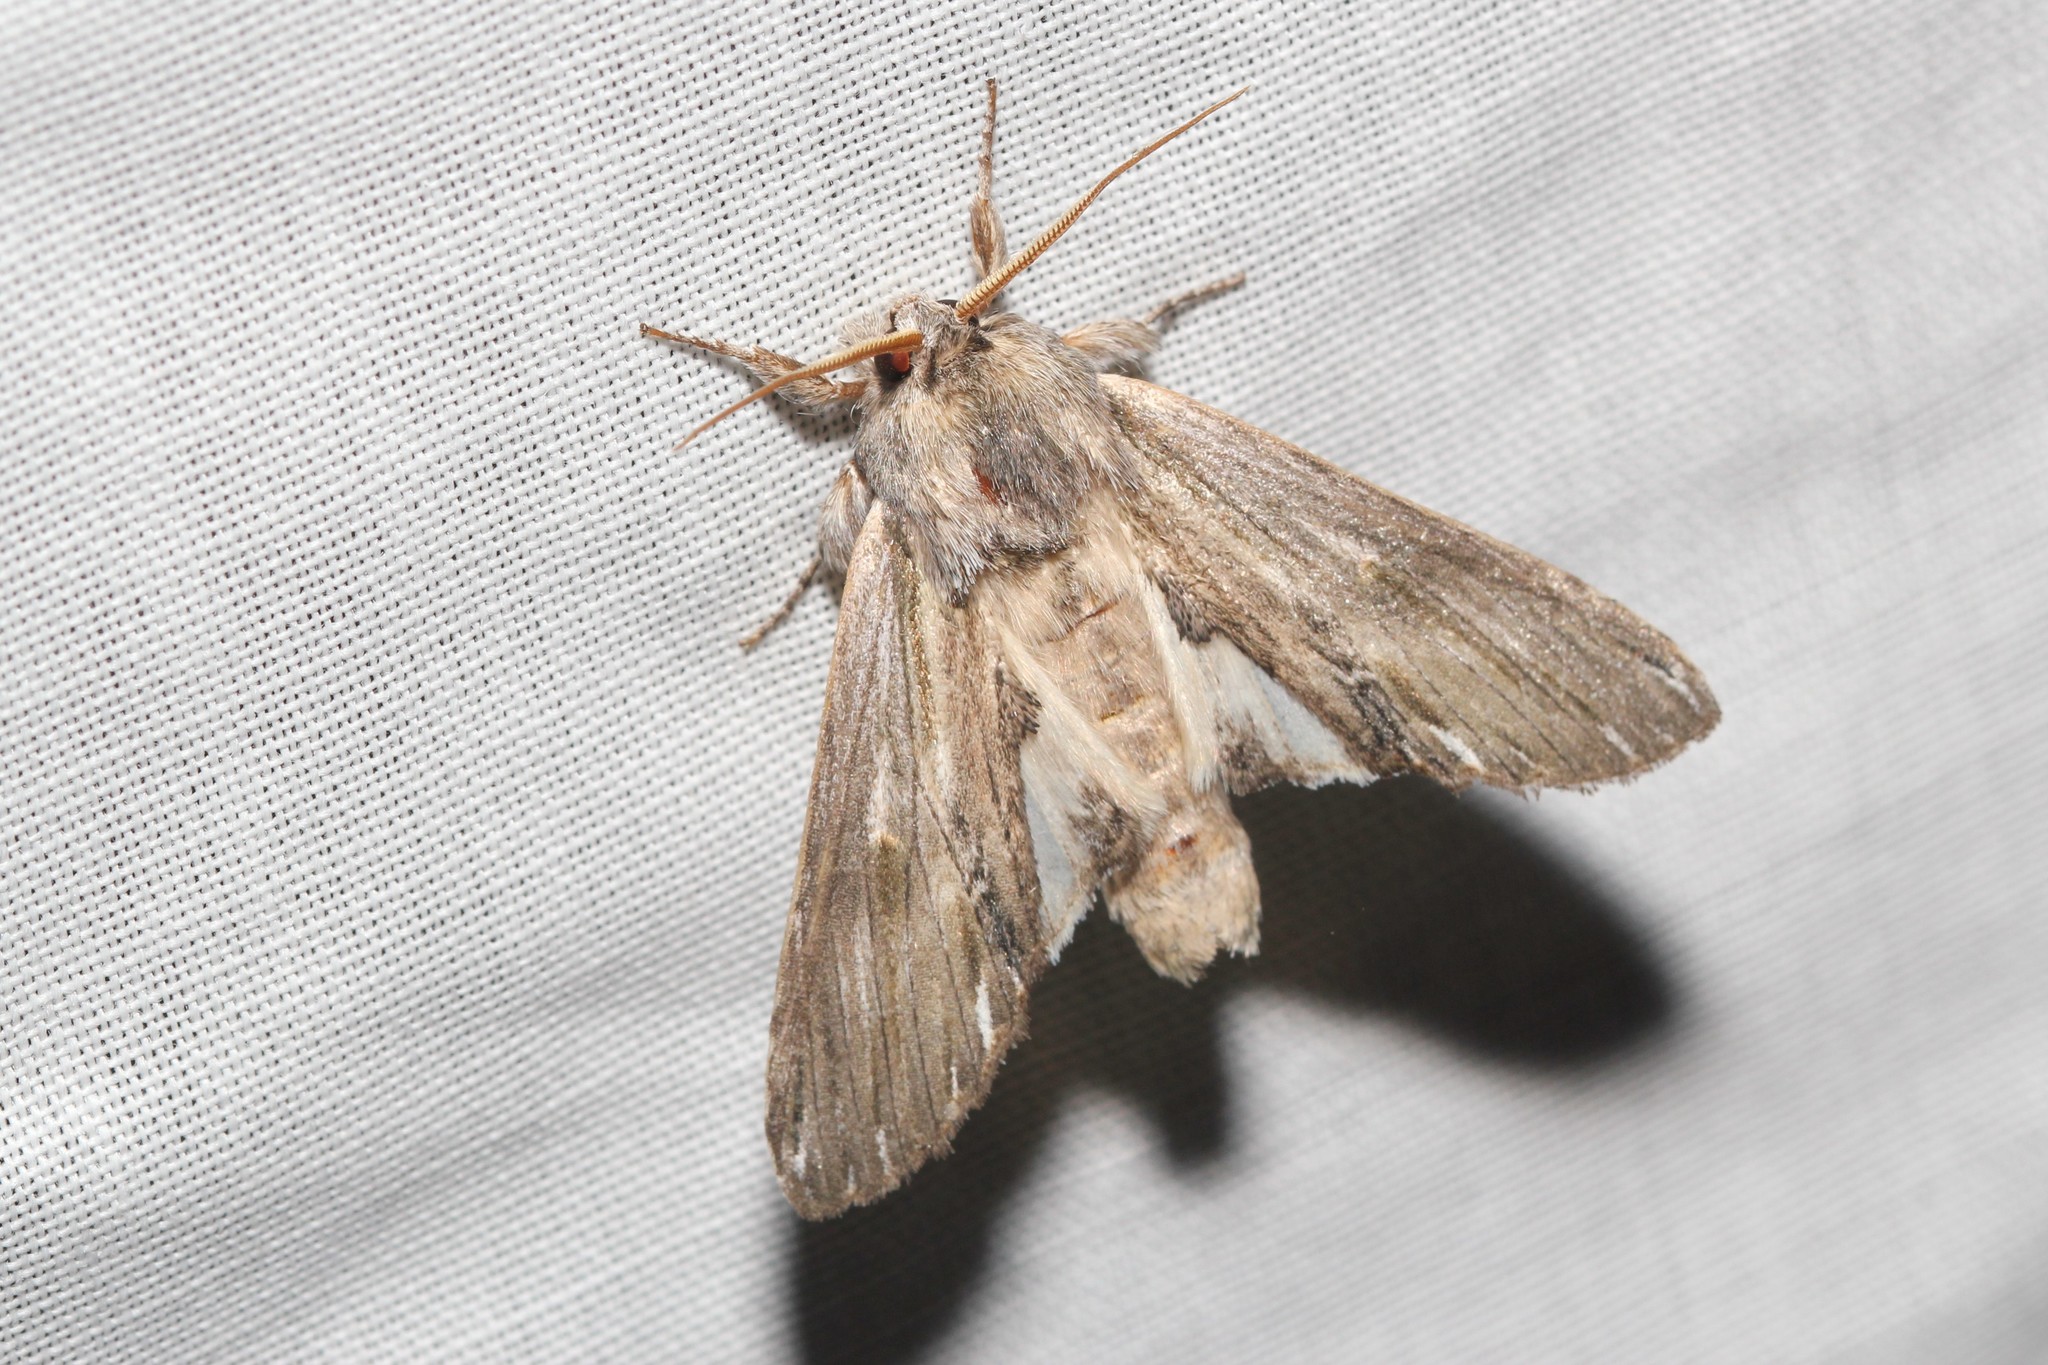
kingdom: Animalia
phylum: Arthropoda
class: Insecta
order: Lepidoptera
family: Notodontidae
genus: Oligocentria
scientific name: Oligocentria Ianassa lignicolor
